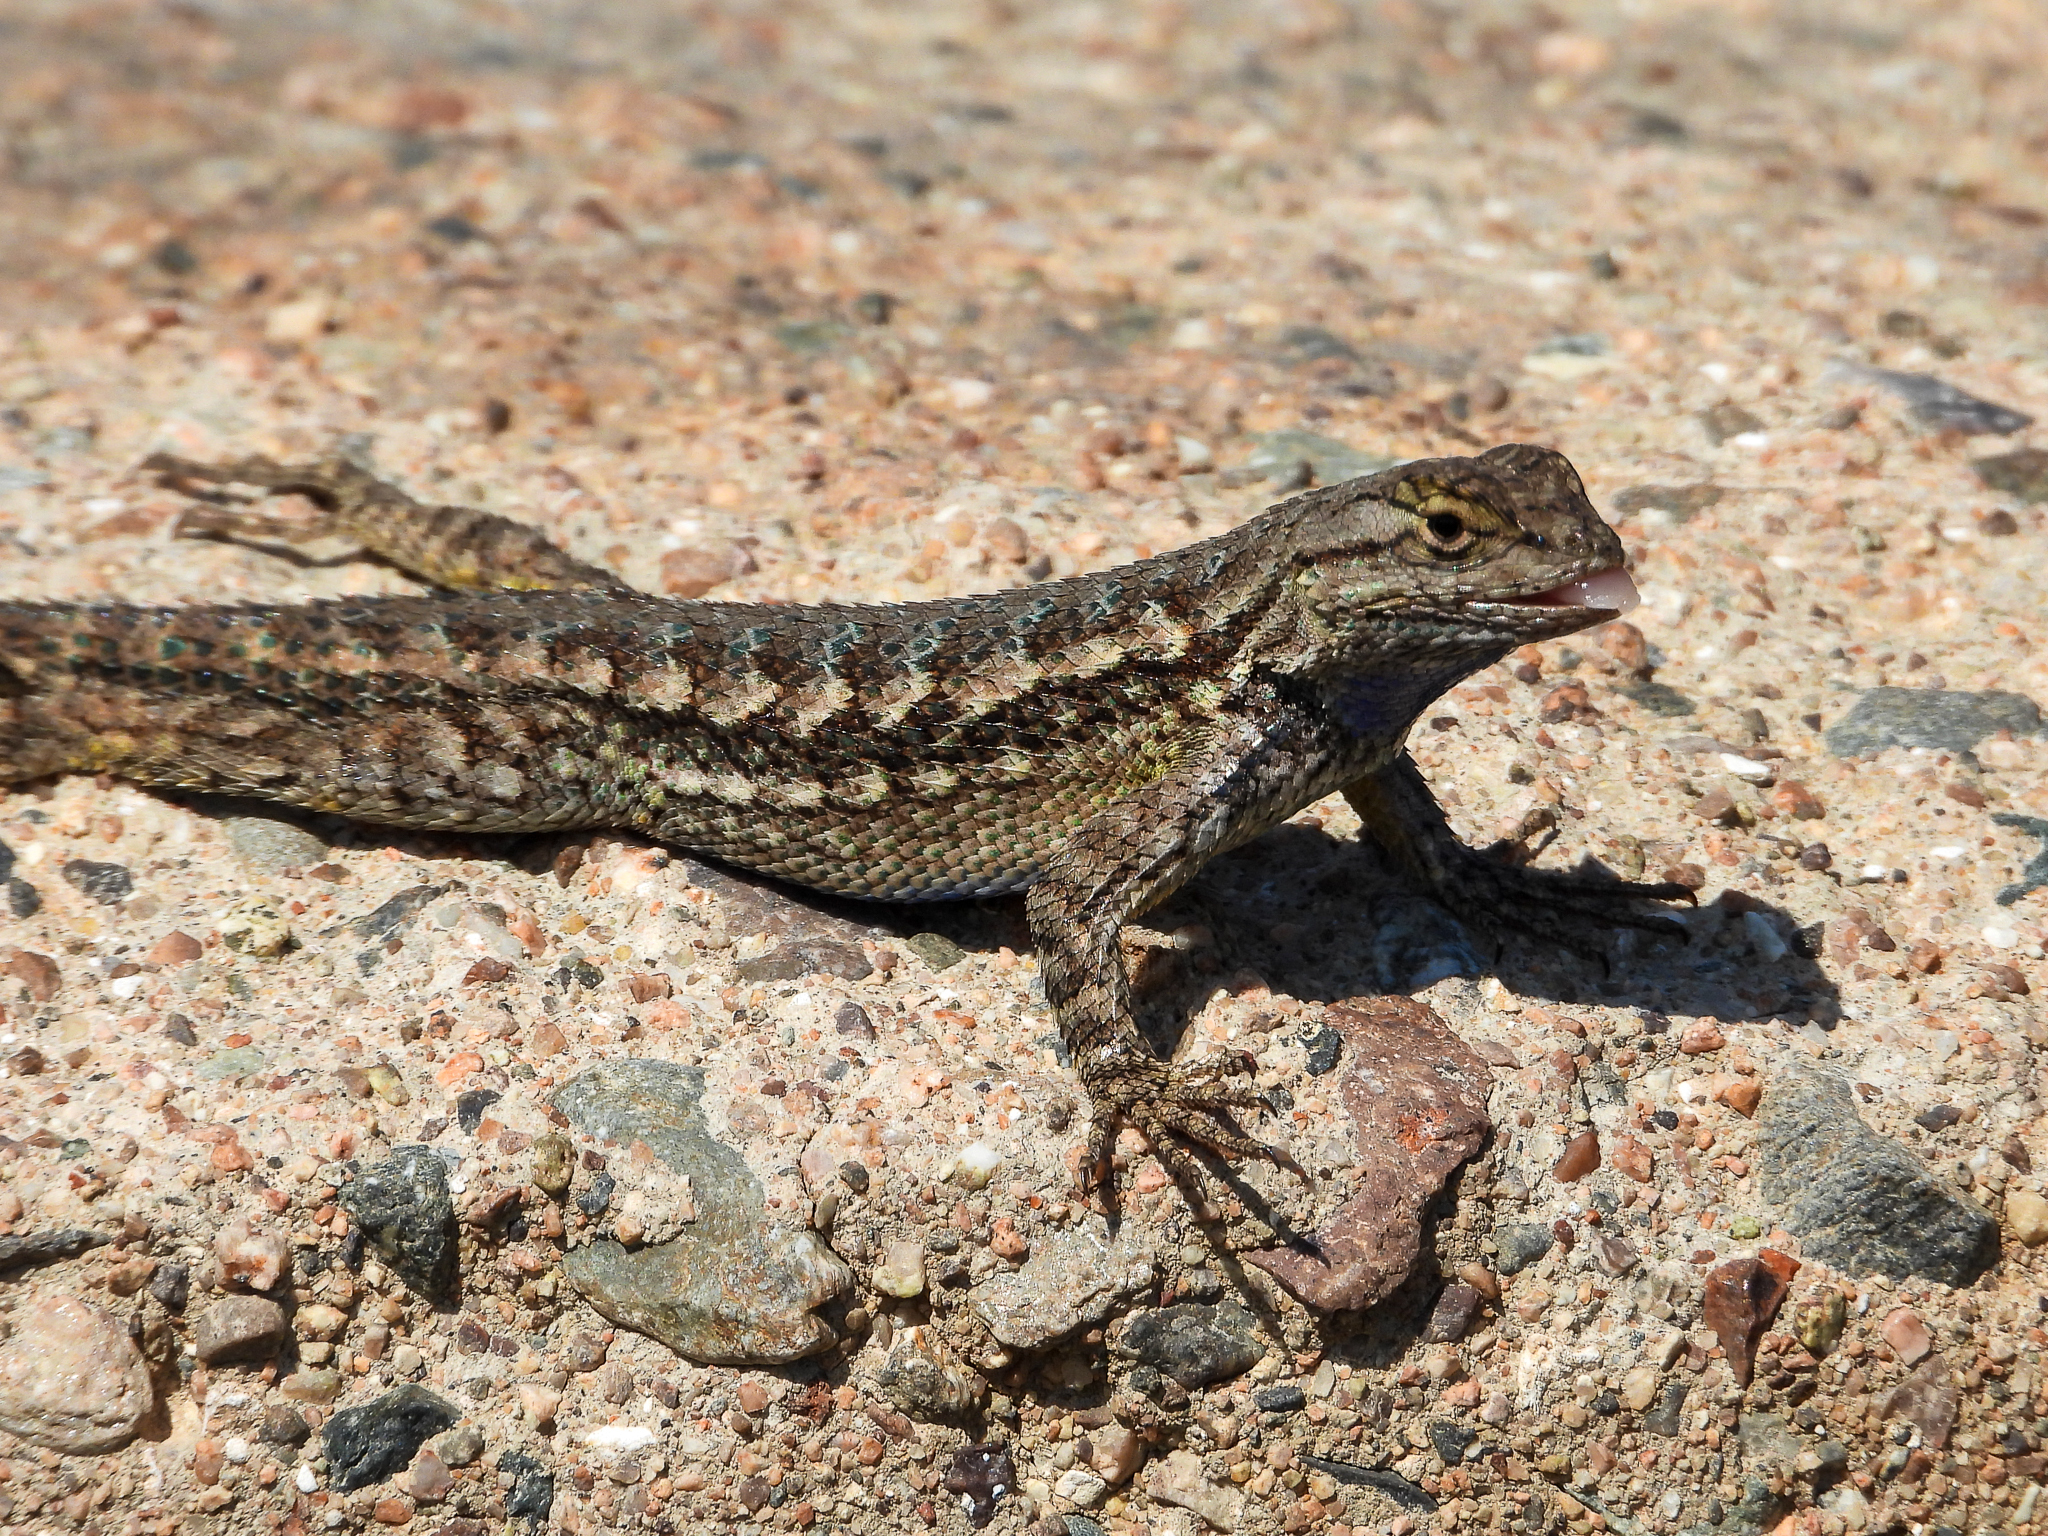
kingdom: Animalia
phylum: Chordata
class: Squamata
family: Phrynosomatidae
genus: Sceloporus
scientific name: Sceloporus occidentalis
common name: Western fence lizard
